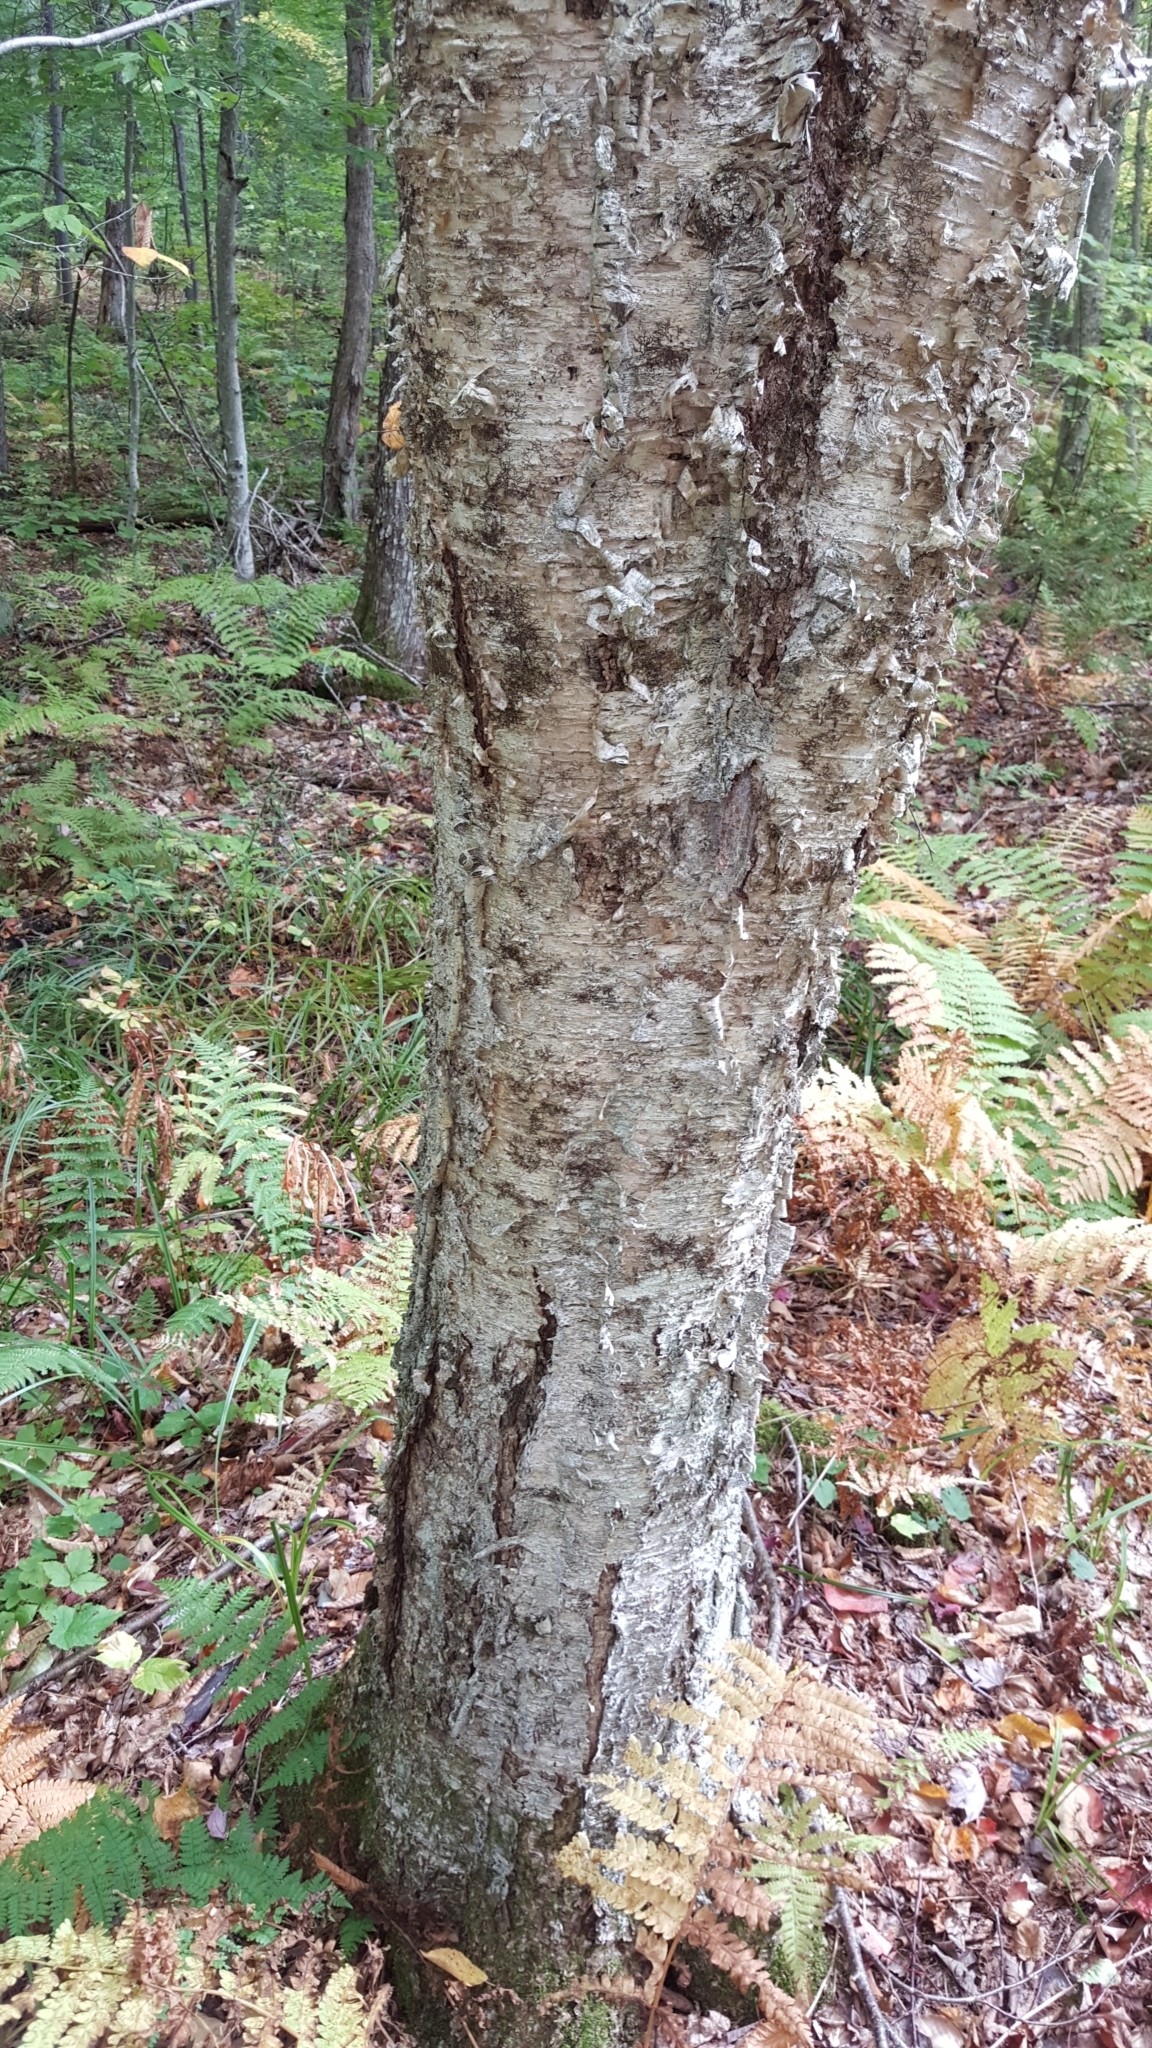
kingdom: Plantae
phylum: Tracheophyta
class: Magnoliopsida
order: Fagales
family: Betulaceae
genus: Betula
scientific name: Betula alleghaniensis
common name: Yellow birch
